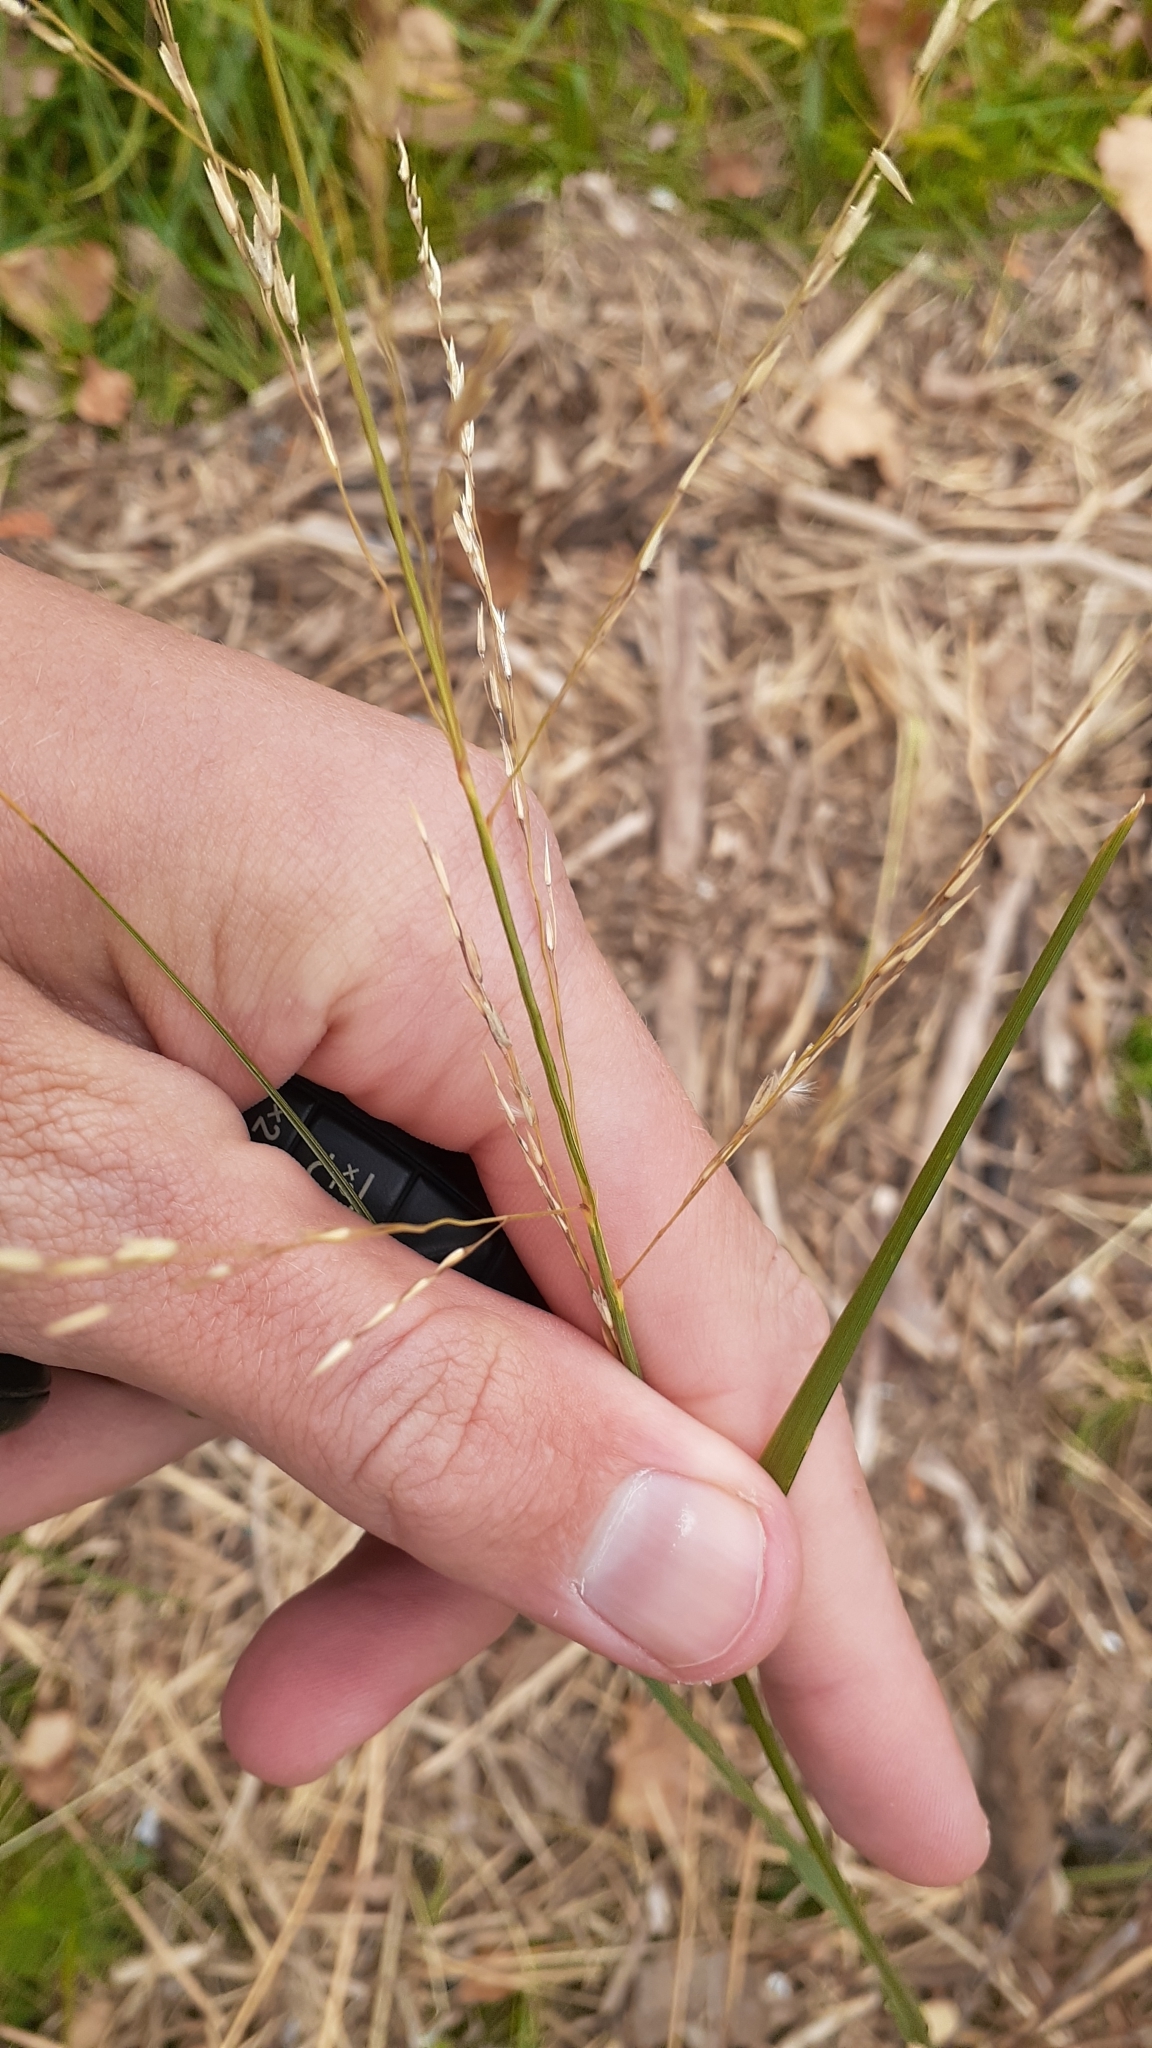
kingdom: Plantae
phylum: Tracheophyta
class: Liliopsida
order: Poales
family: Poaceae
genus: Sporobolus
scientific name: Sporobolus rigidus
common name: Prairie sandreed
